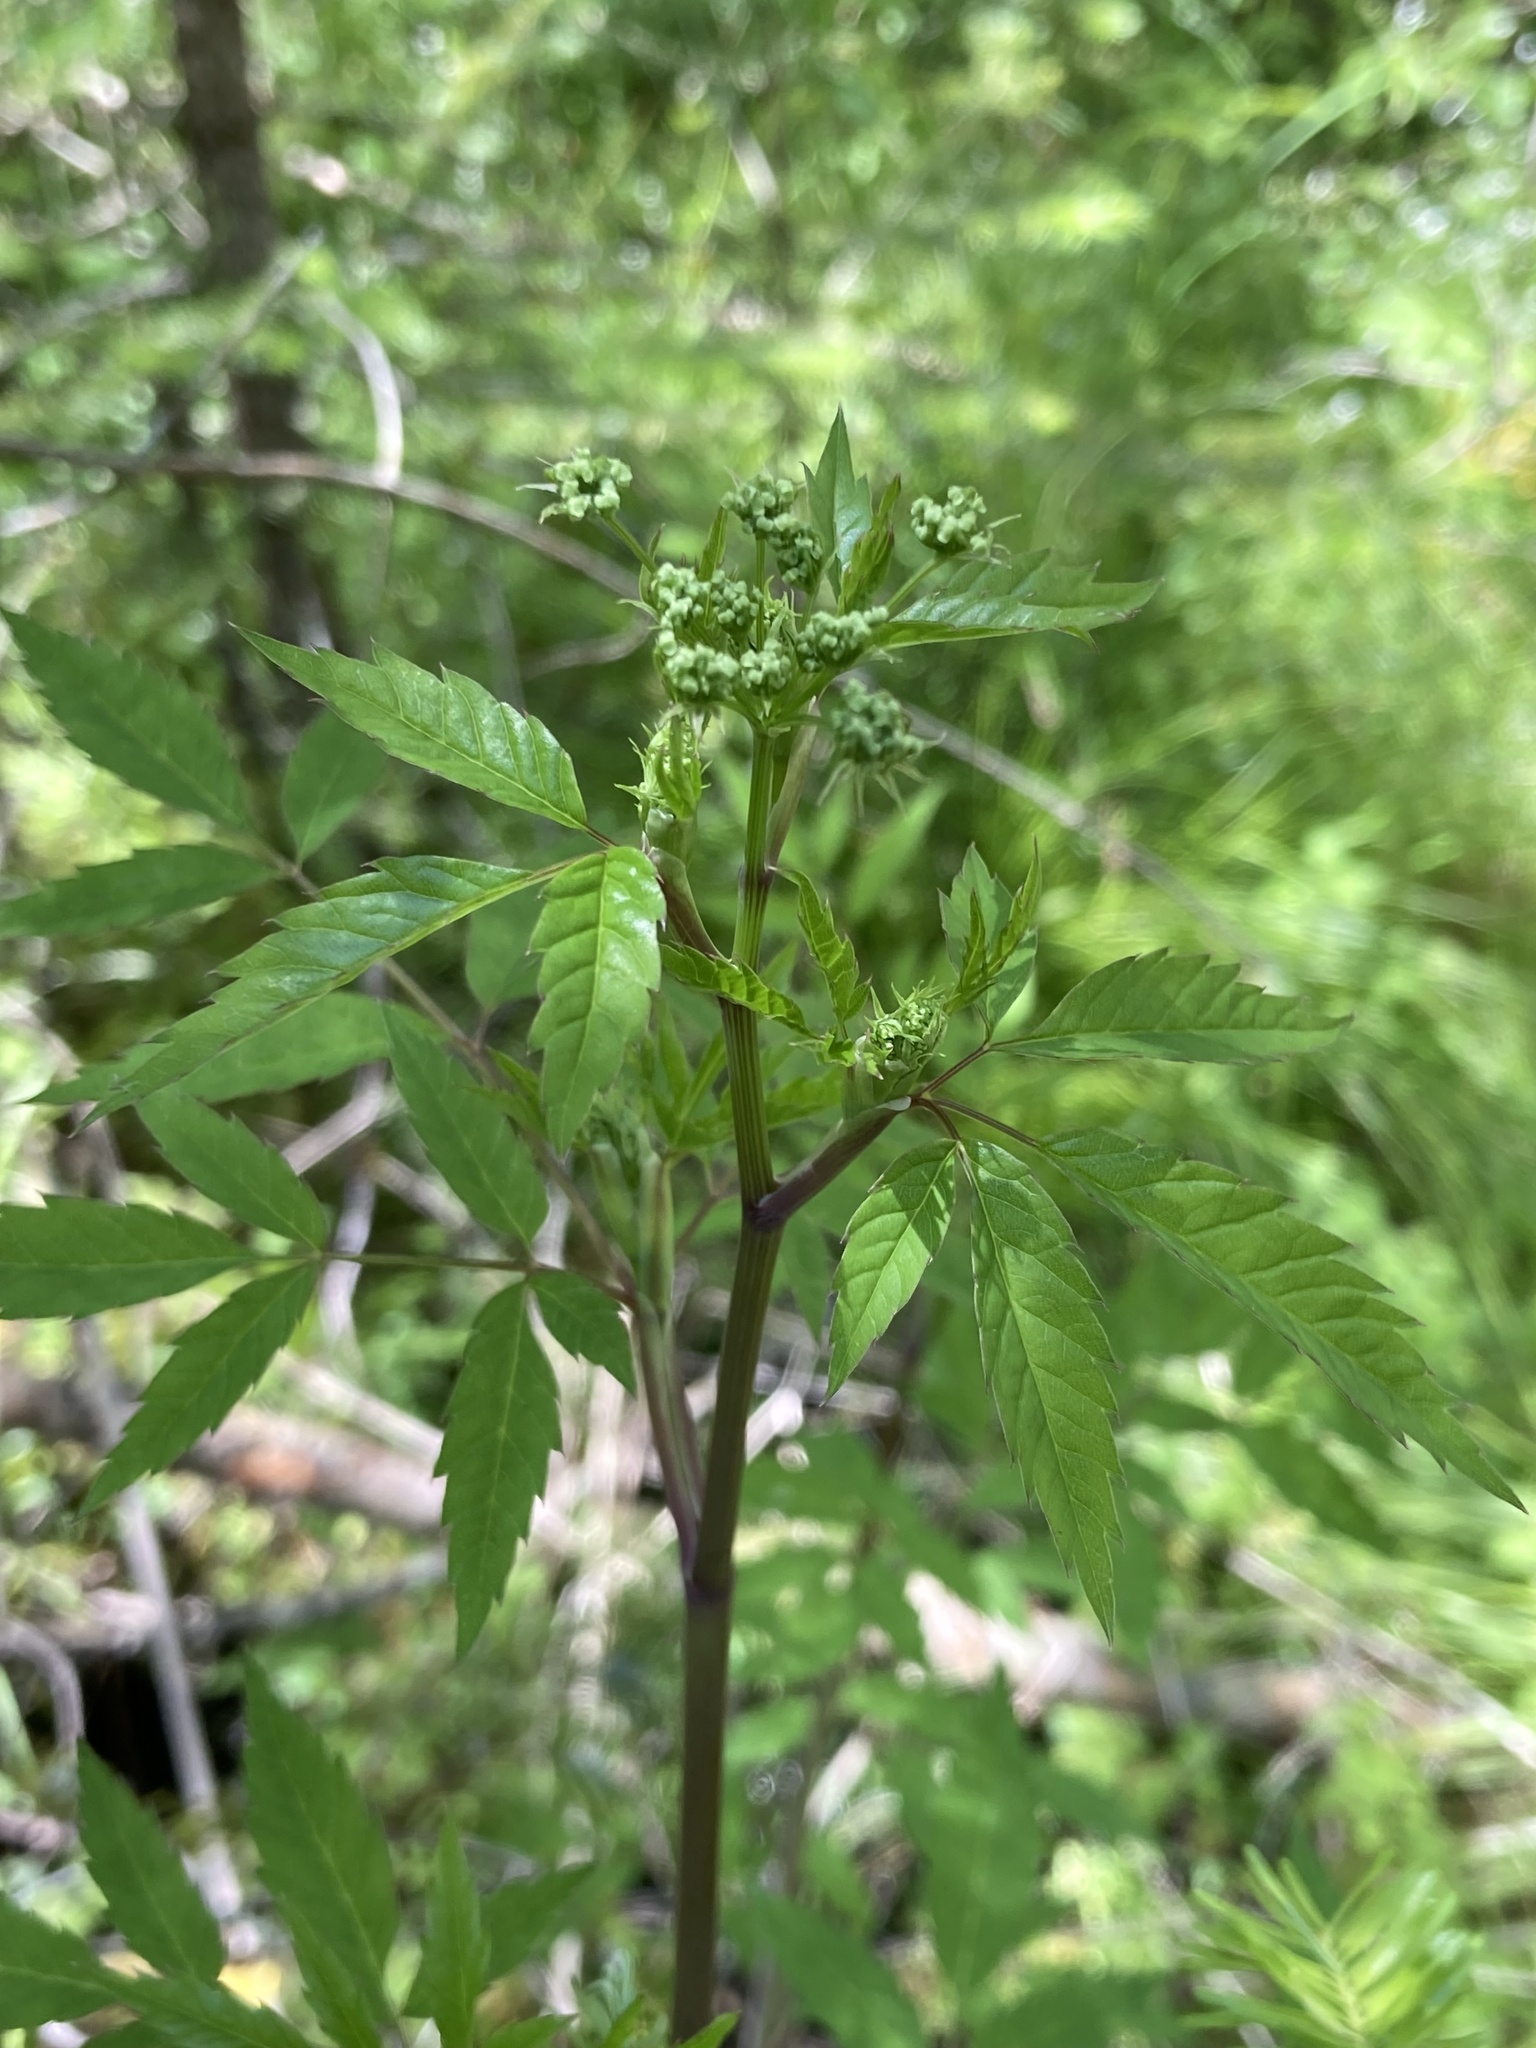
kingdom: Plantae
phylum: Tracheophyta
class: Magnoliopsida
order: Apiales
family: Apiaceae
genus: Cicuta
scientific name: Cicuta maculata
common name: Spotted cowbane
